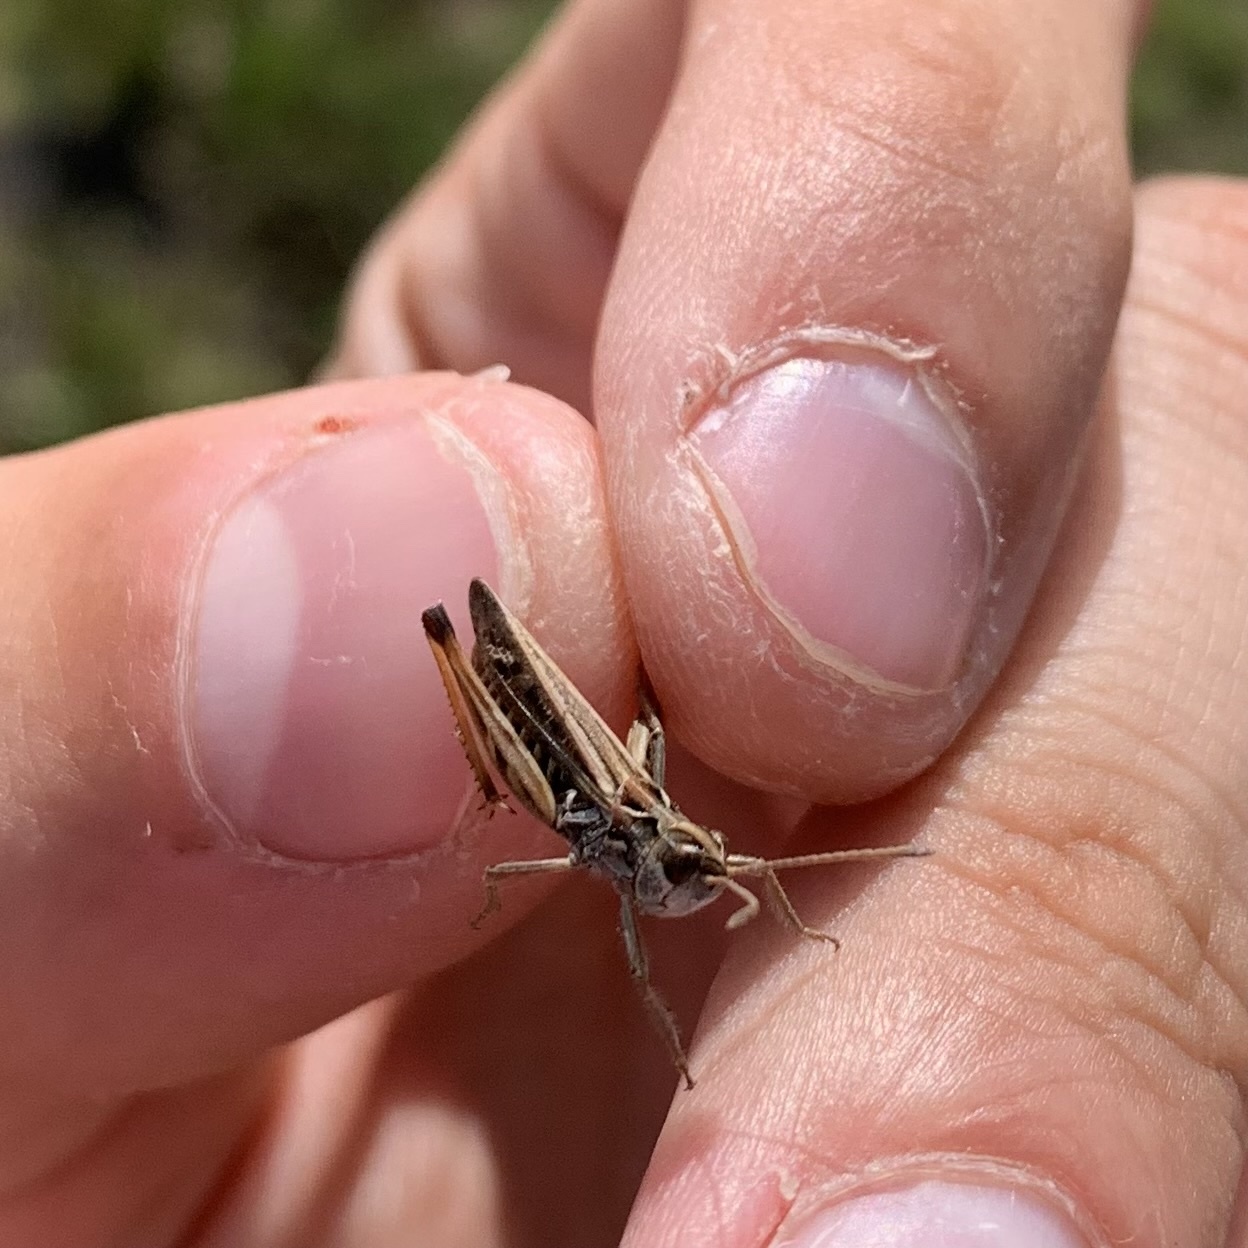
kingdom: Animalia
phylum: Arthropoda
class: Insecta
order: Orthoptera
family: Acrididae
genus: Myrmeleotettix
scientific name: Myrmeleotettix maculatus
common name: Mottled grasshopper
